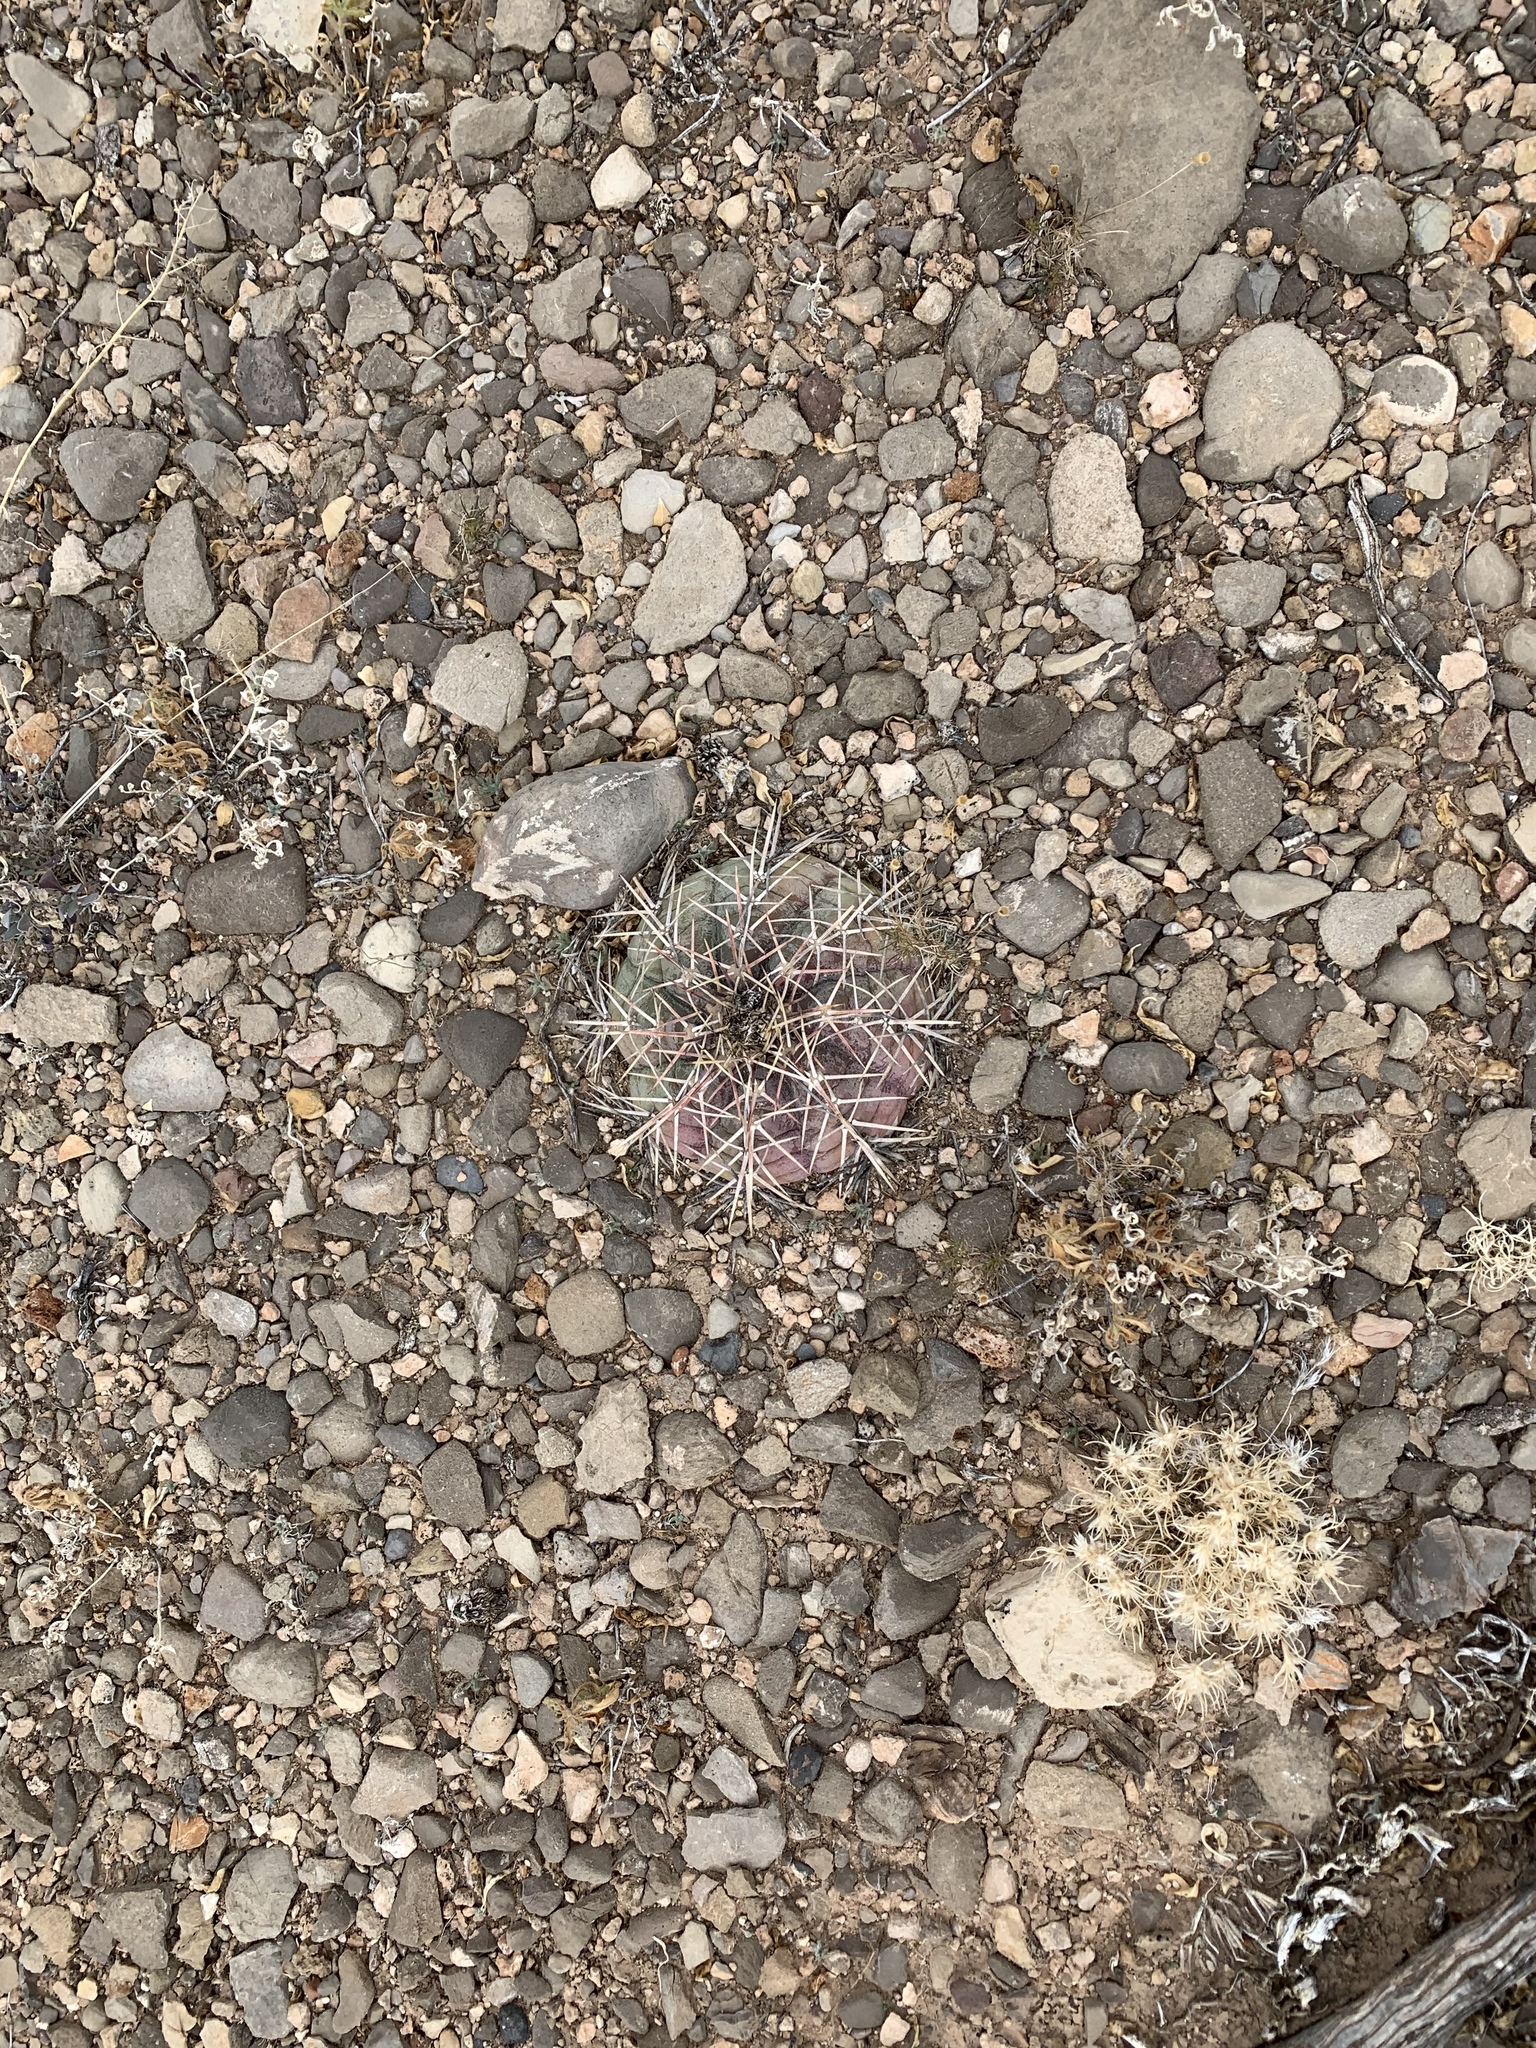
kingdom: Plantae
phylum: Tracheophyta
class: Magnoliopsida
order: Caryophyllales
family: Cactaceae
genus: Echinocactus
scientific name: Echinocactus horizonthalonius
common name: Devilshead
